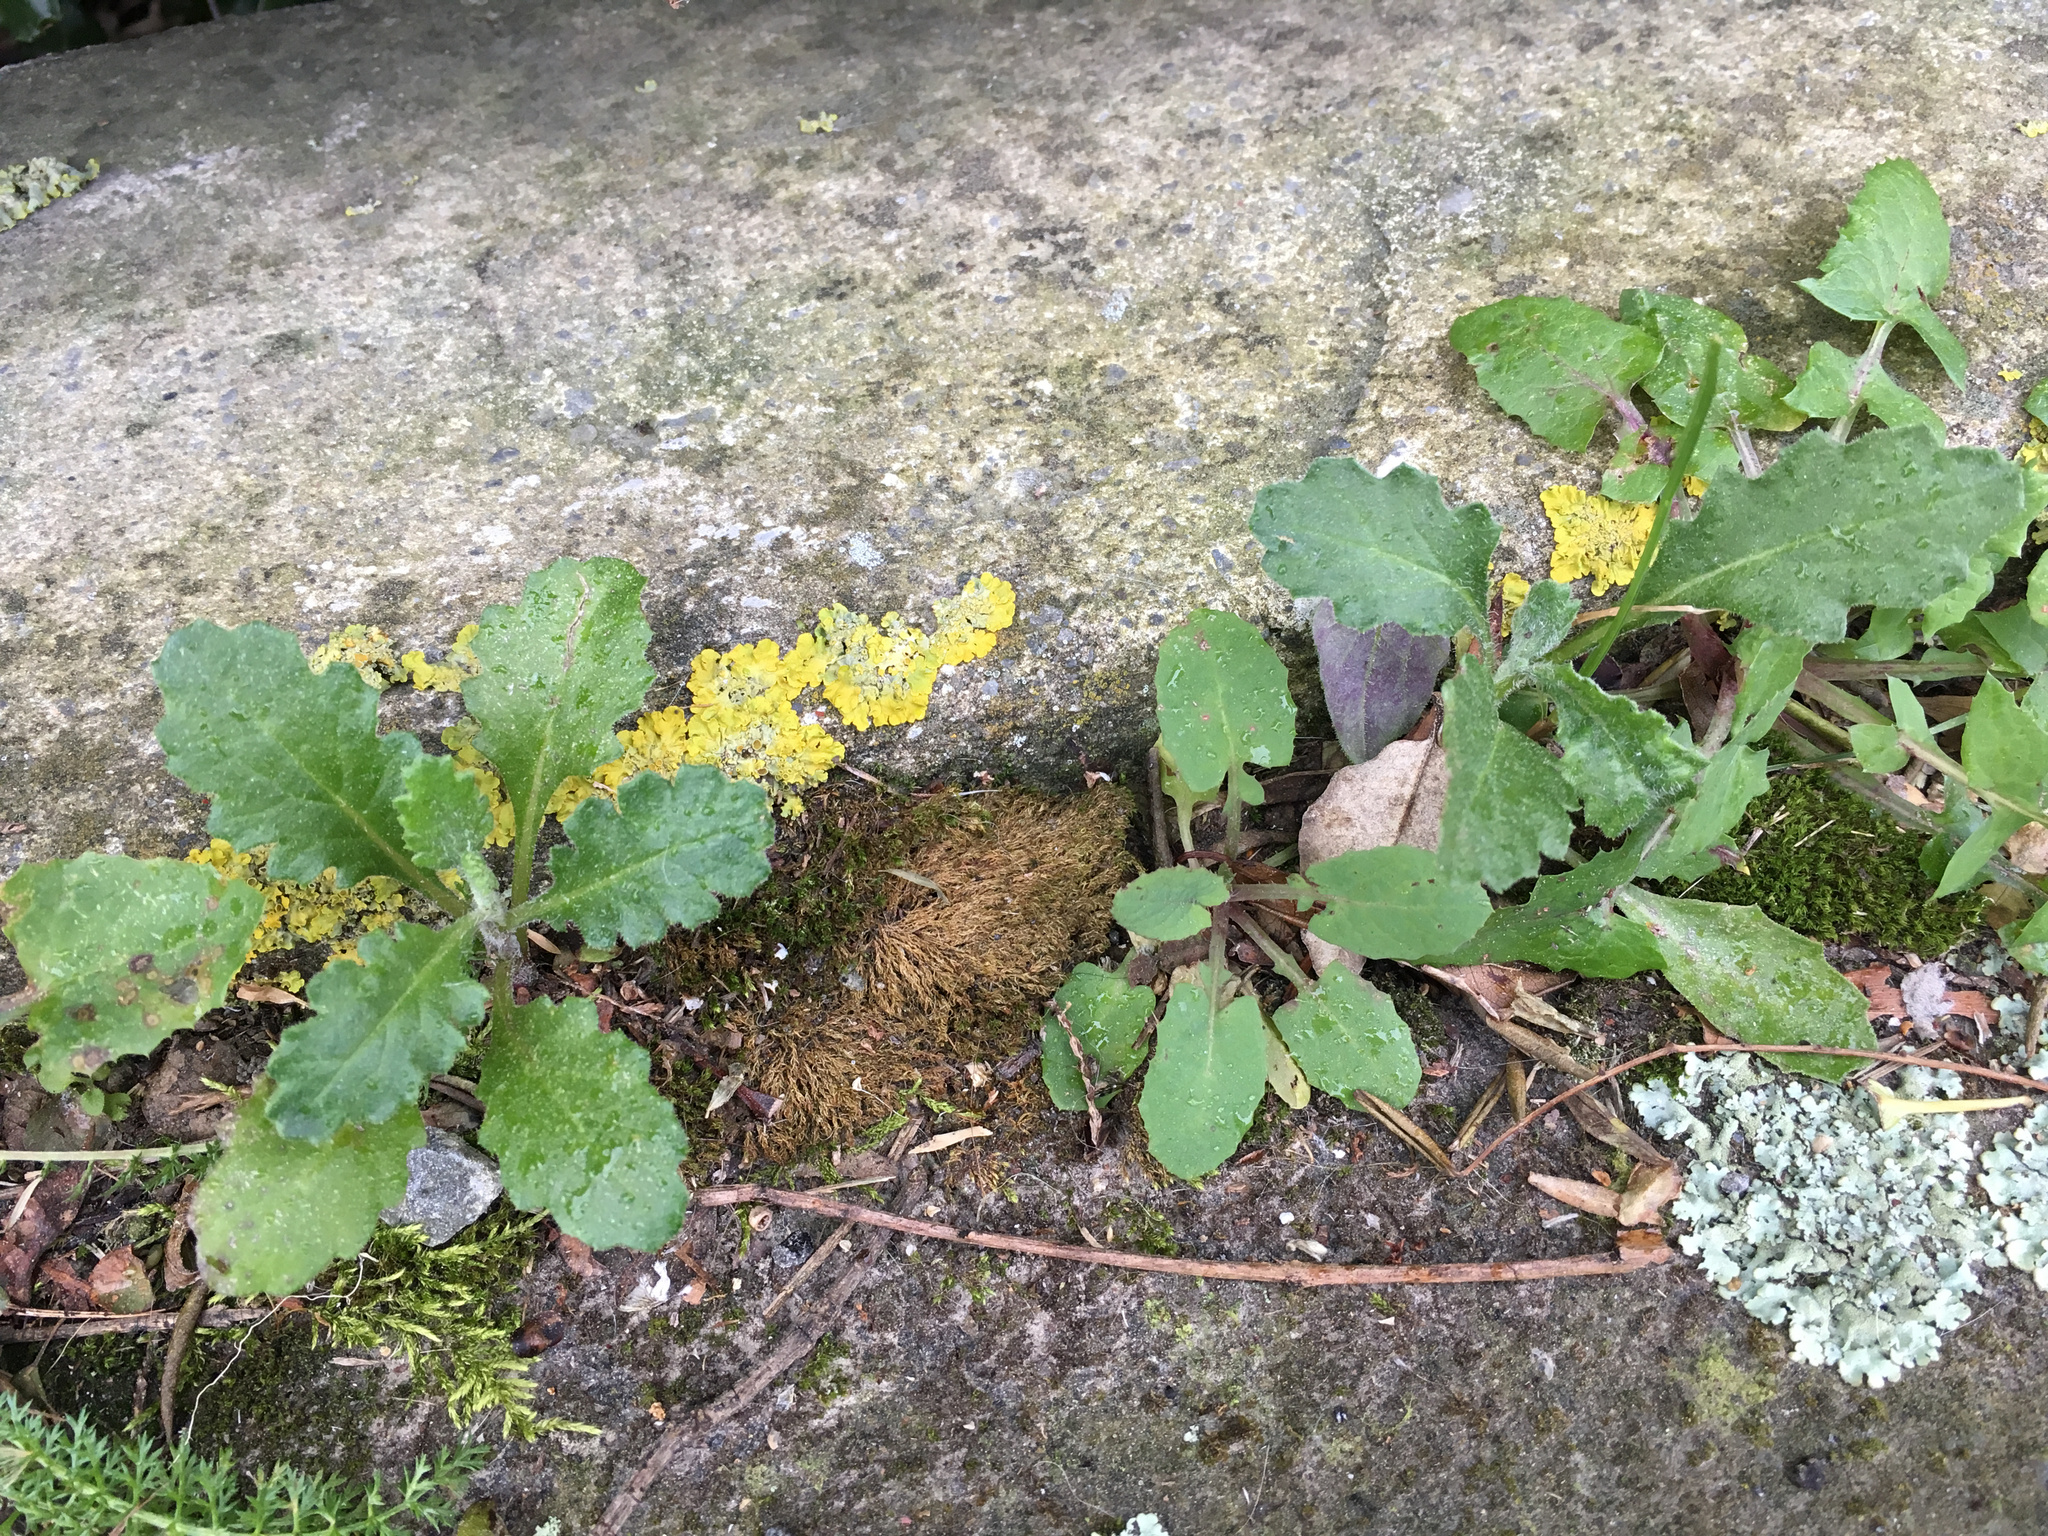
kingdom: Plantae
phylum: Tracheophyta
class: Magnoliopsida
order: Asterales
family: Asteraceae
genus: Senecio
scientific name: Senecio glomeratus
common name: Cutleaf burnweed
